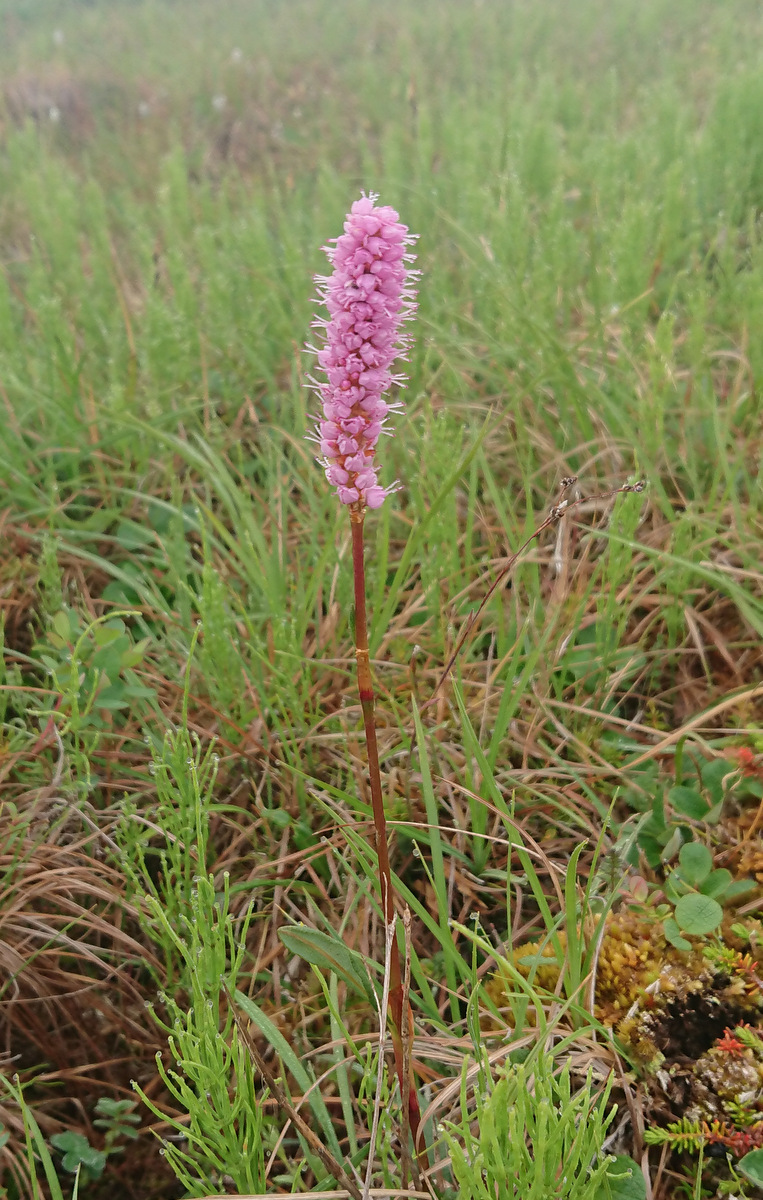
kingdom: Plantae
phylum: Tracheophyta
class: Magnoliopsida
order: Caryophyllales
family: Polygonaceae
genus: Bistorta
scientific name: Bistorta plumosa
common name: Meadow bistort
